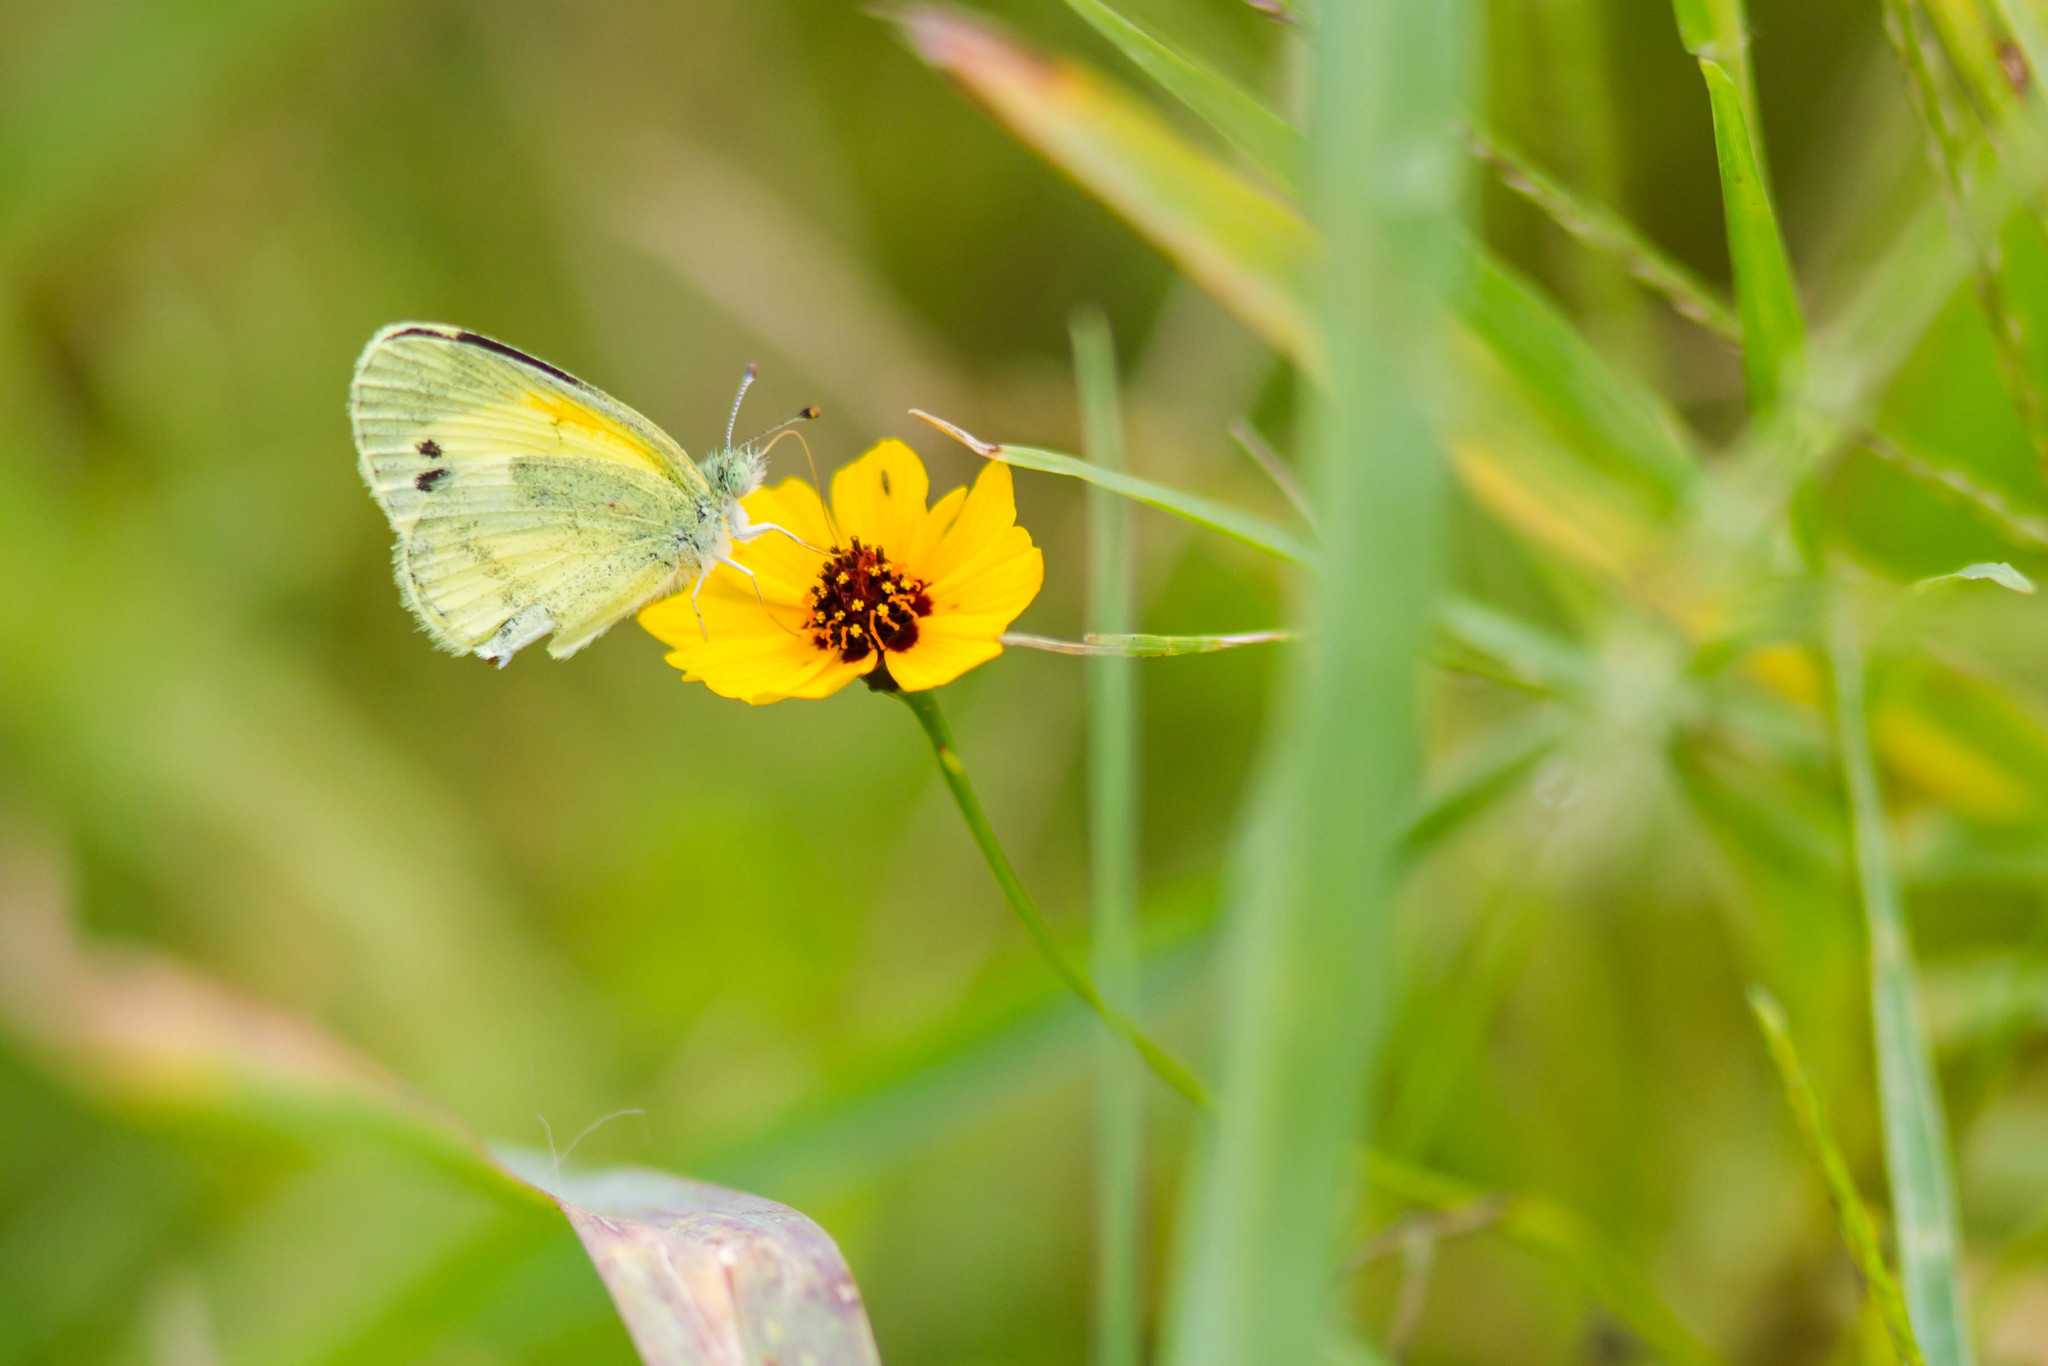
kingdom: Animalia
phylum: Arthropoda
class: Insecta
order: Lepidoptera
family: Pieridae
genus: Nathalis
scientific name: Nathalis iole
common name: Dainty sulphur
